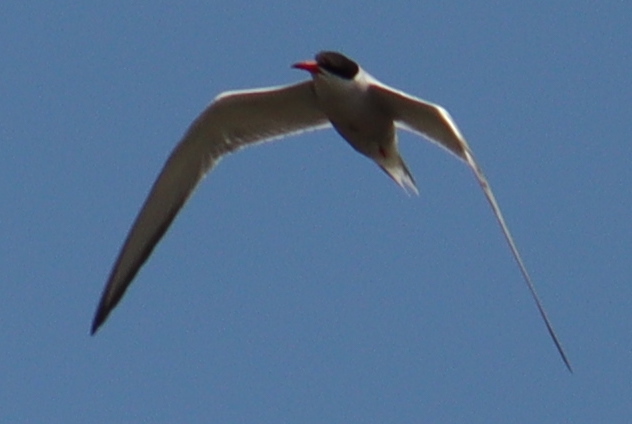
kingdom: Animalia
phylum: Chordata
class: Aves
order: Charadriiformes
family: Laridae
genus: Sterna
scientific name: Sterna hirundo
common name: Common tern
